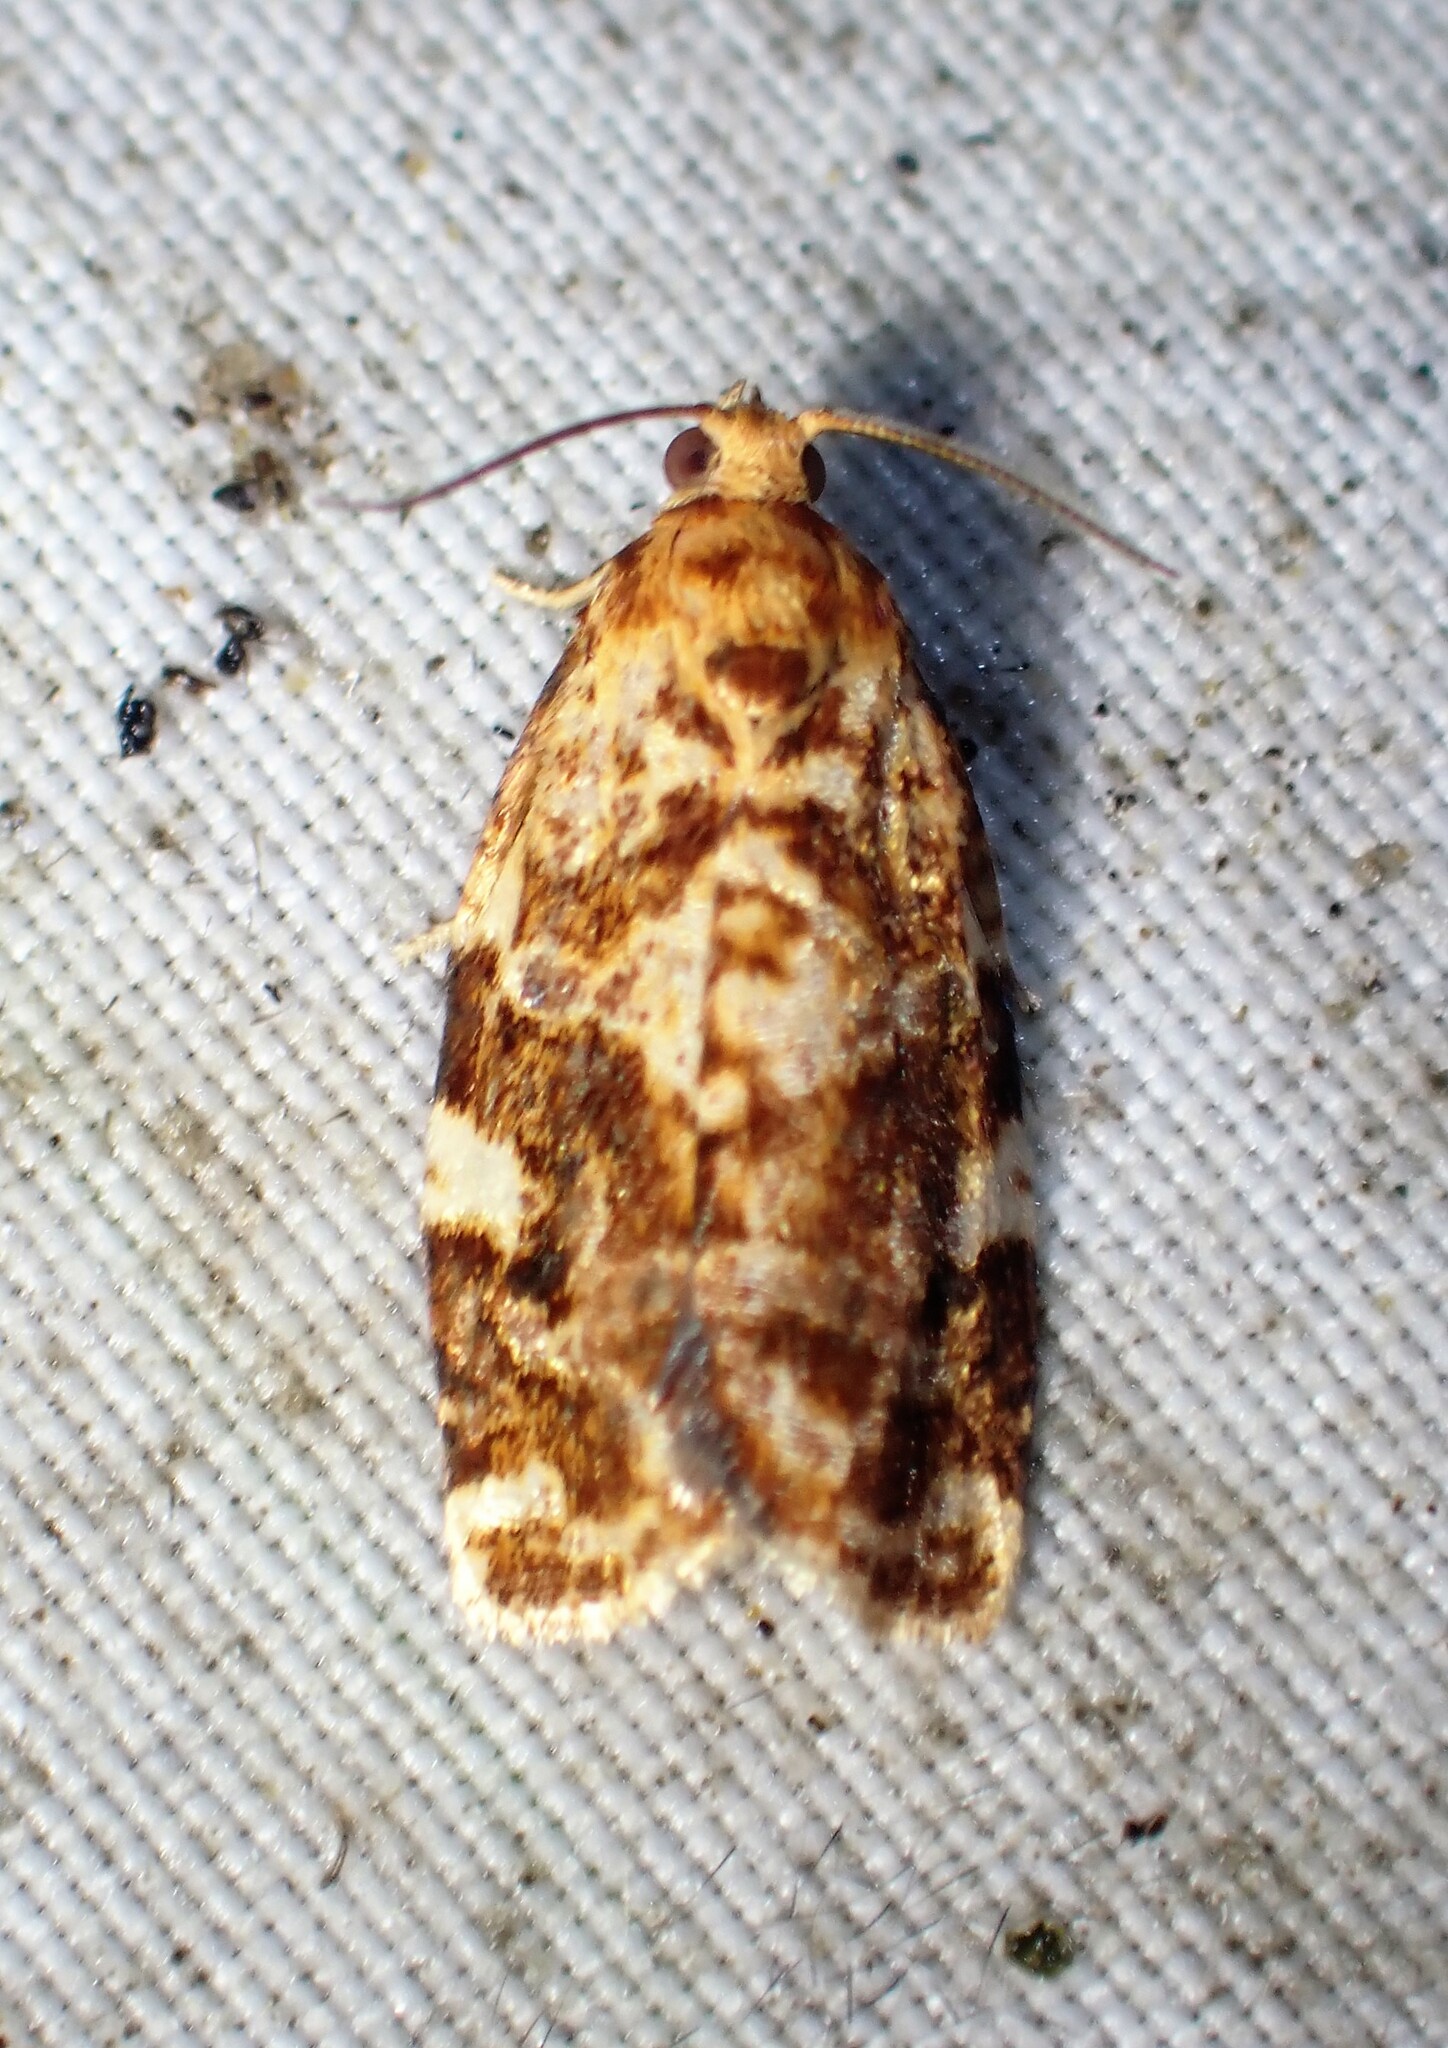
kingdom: Animalia
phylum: Arthropoda
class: Insecta
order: Lepidoptera
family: Tortricidae
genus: Archips
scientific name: Archips argyrospila
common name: Fruit-tree leafroller moth
